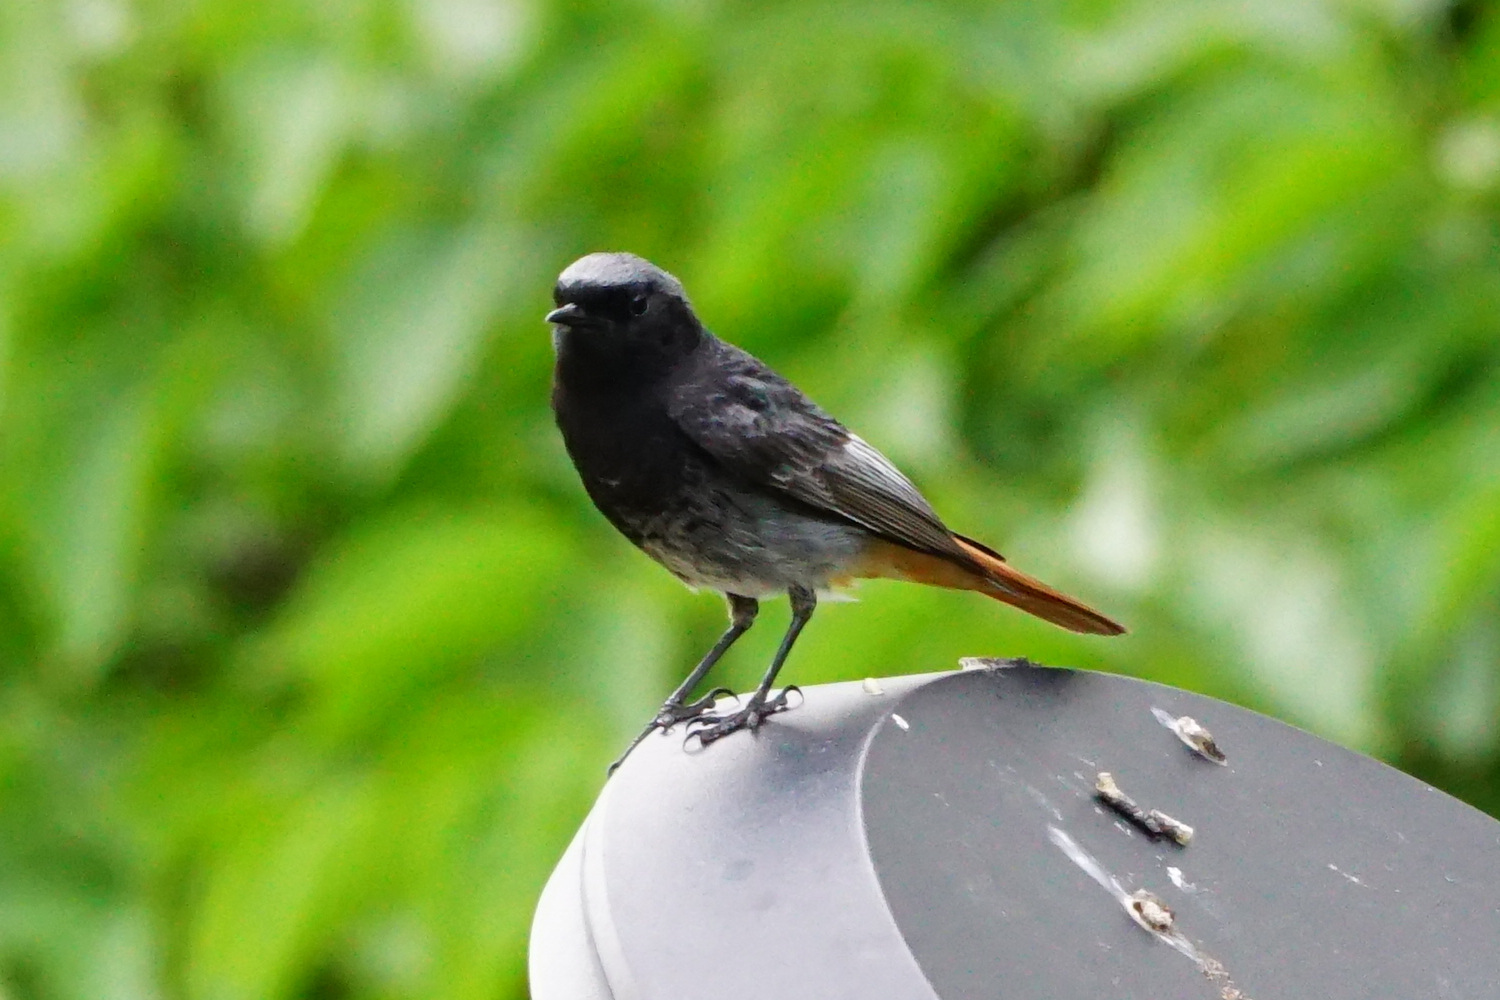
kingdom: Animalia
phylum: Chordata
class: Aves
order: Passeriformes
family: Muscicapidae
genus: Phoenicurus
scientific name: Phoenicurus ochruros
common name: Black redstart
